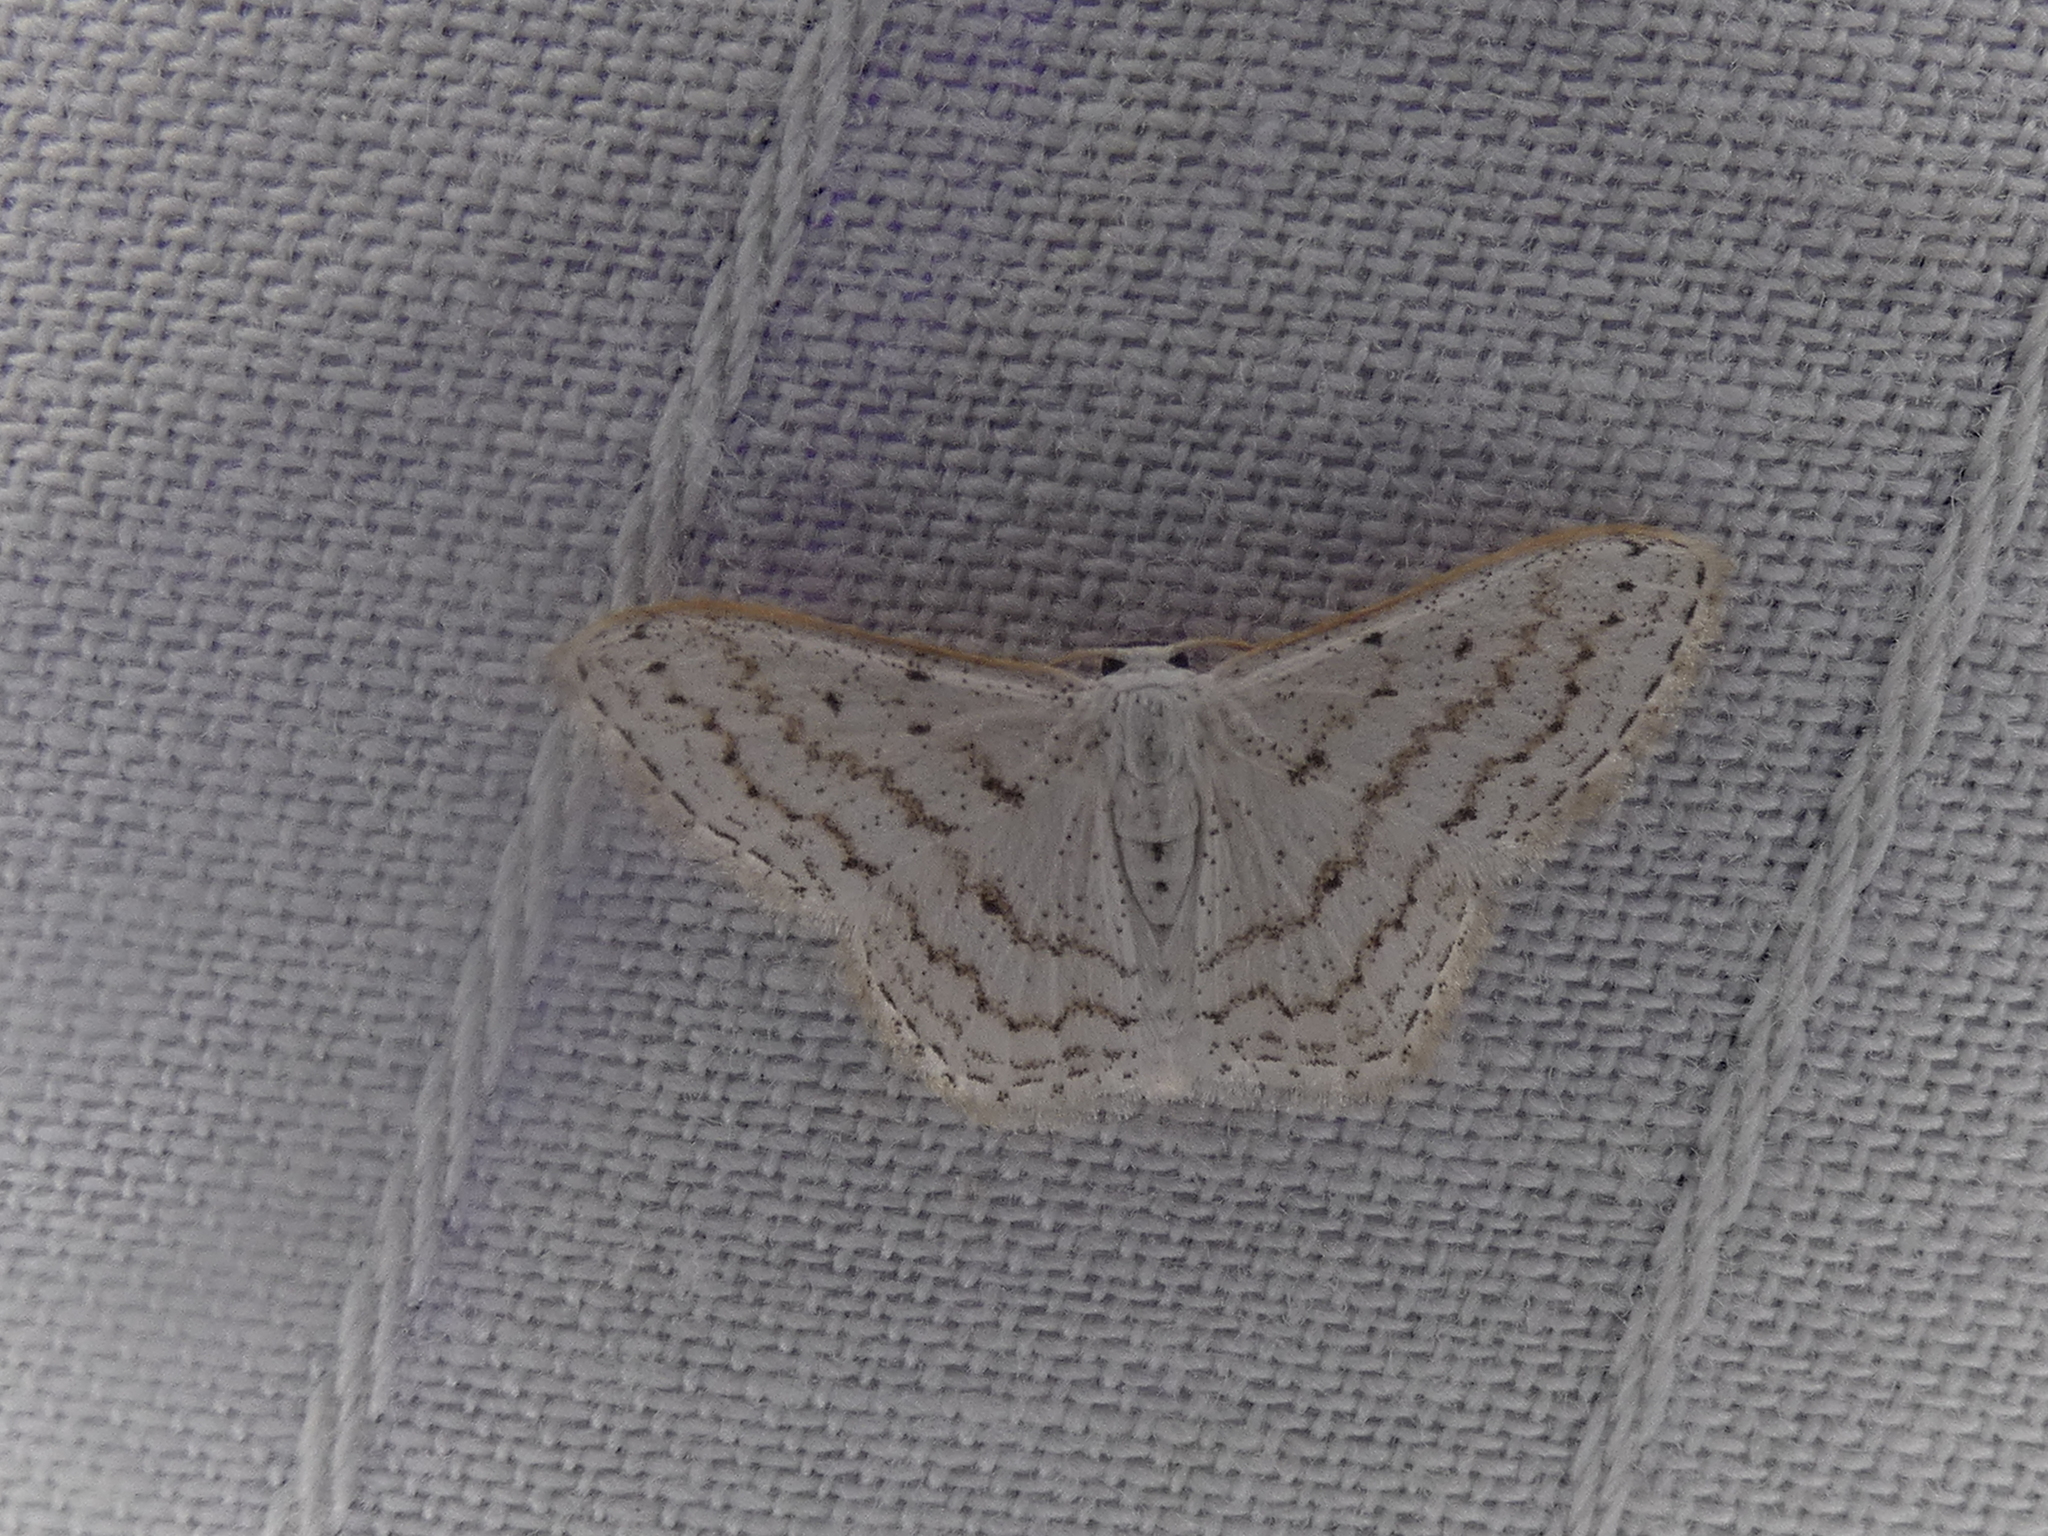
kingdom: Animalia
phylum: Arthropoda
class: Insecta
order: Lepidoptera
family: Geometridae
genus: Idaea
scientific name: Idaea tacturata
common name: Dot-lined wave
